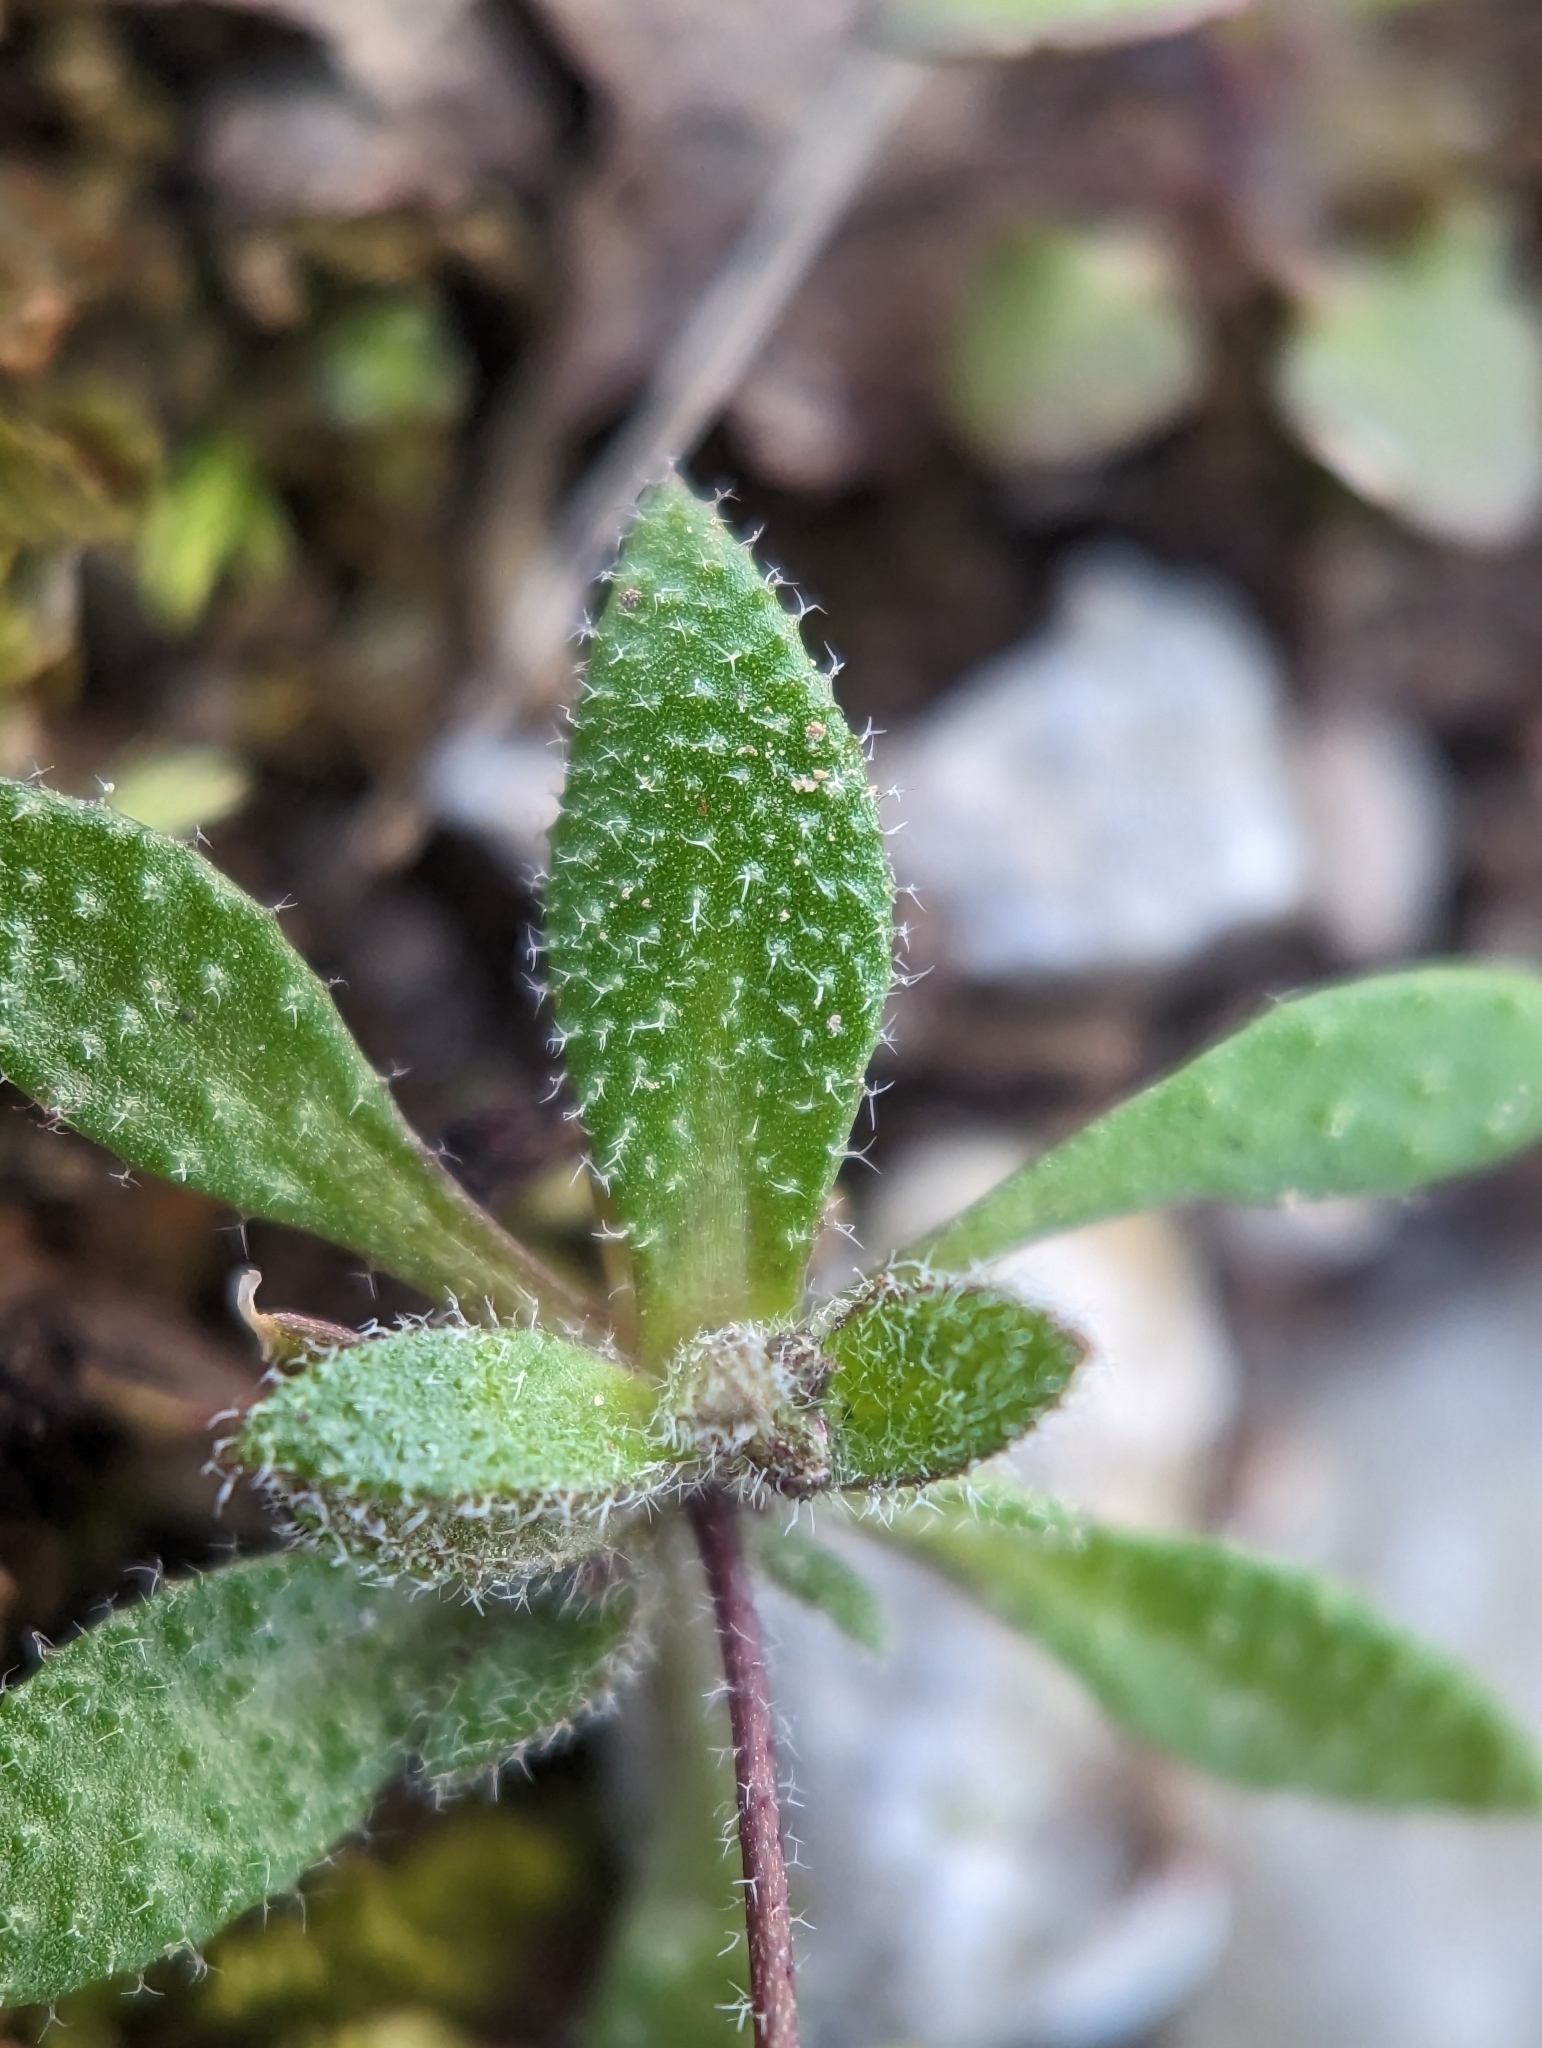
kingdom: Plantae
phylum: Tracheophyta
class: Magnoliopsida
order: Brassicales
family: Brassicaceae
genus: Draba
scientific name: Draba verna
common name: Spring draba
